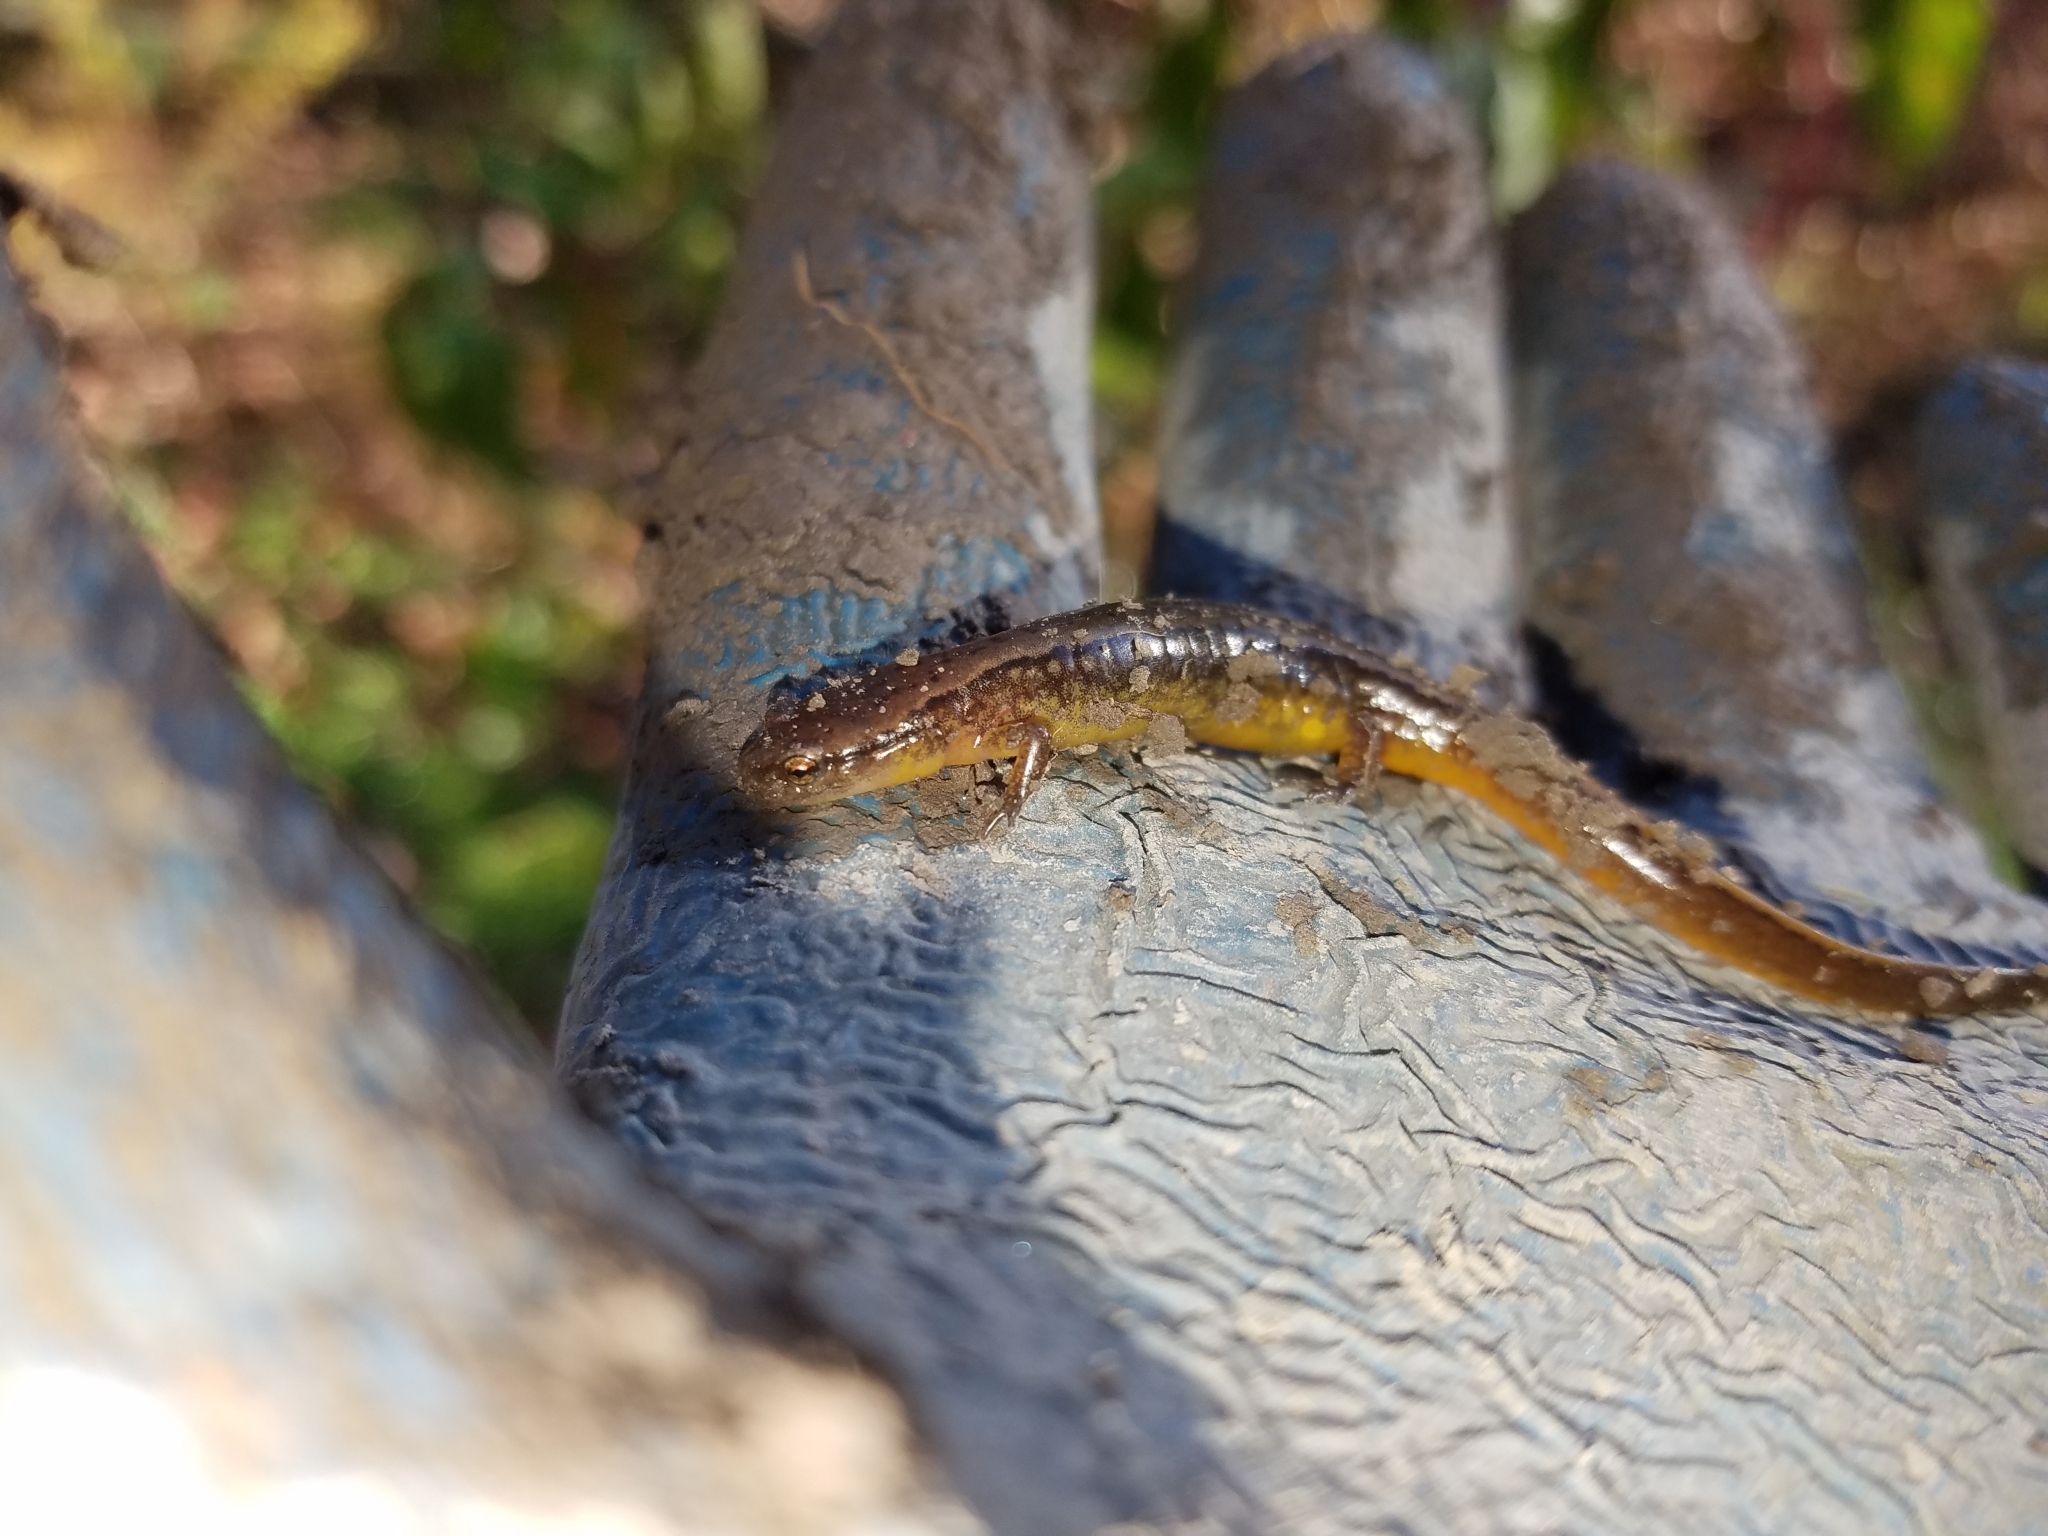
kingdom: Animalia
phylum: Chordata
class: Amphibia
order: Caudata
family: Plethodontidae
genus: Eurycea
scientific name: Eurycea bislineata
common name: Northern two-lined salamander
